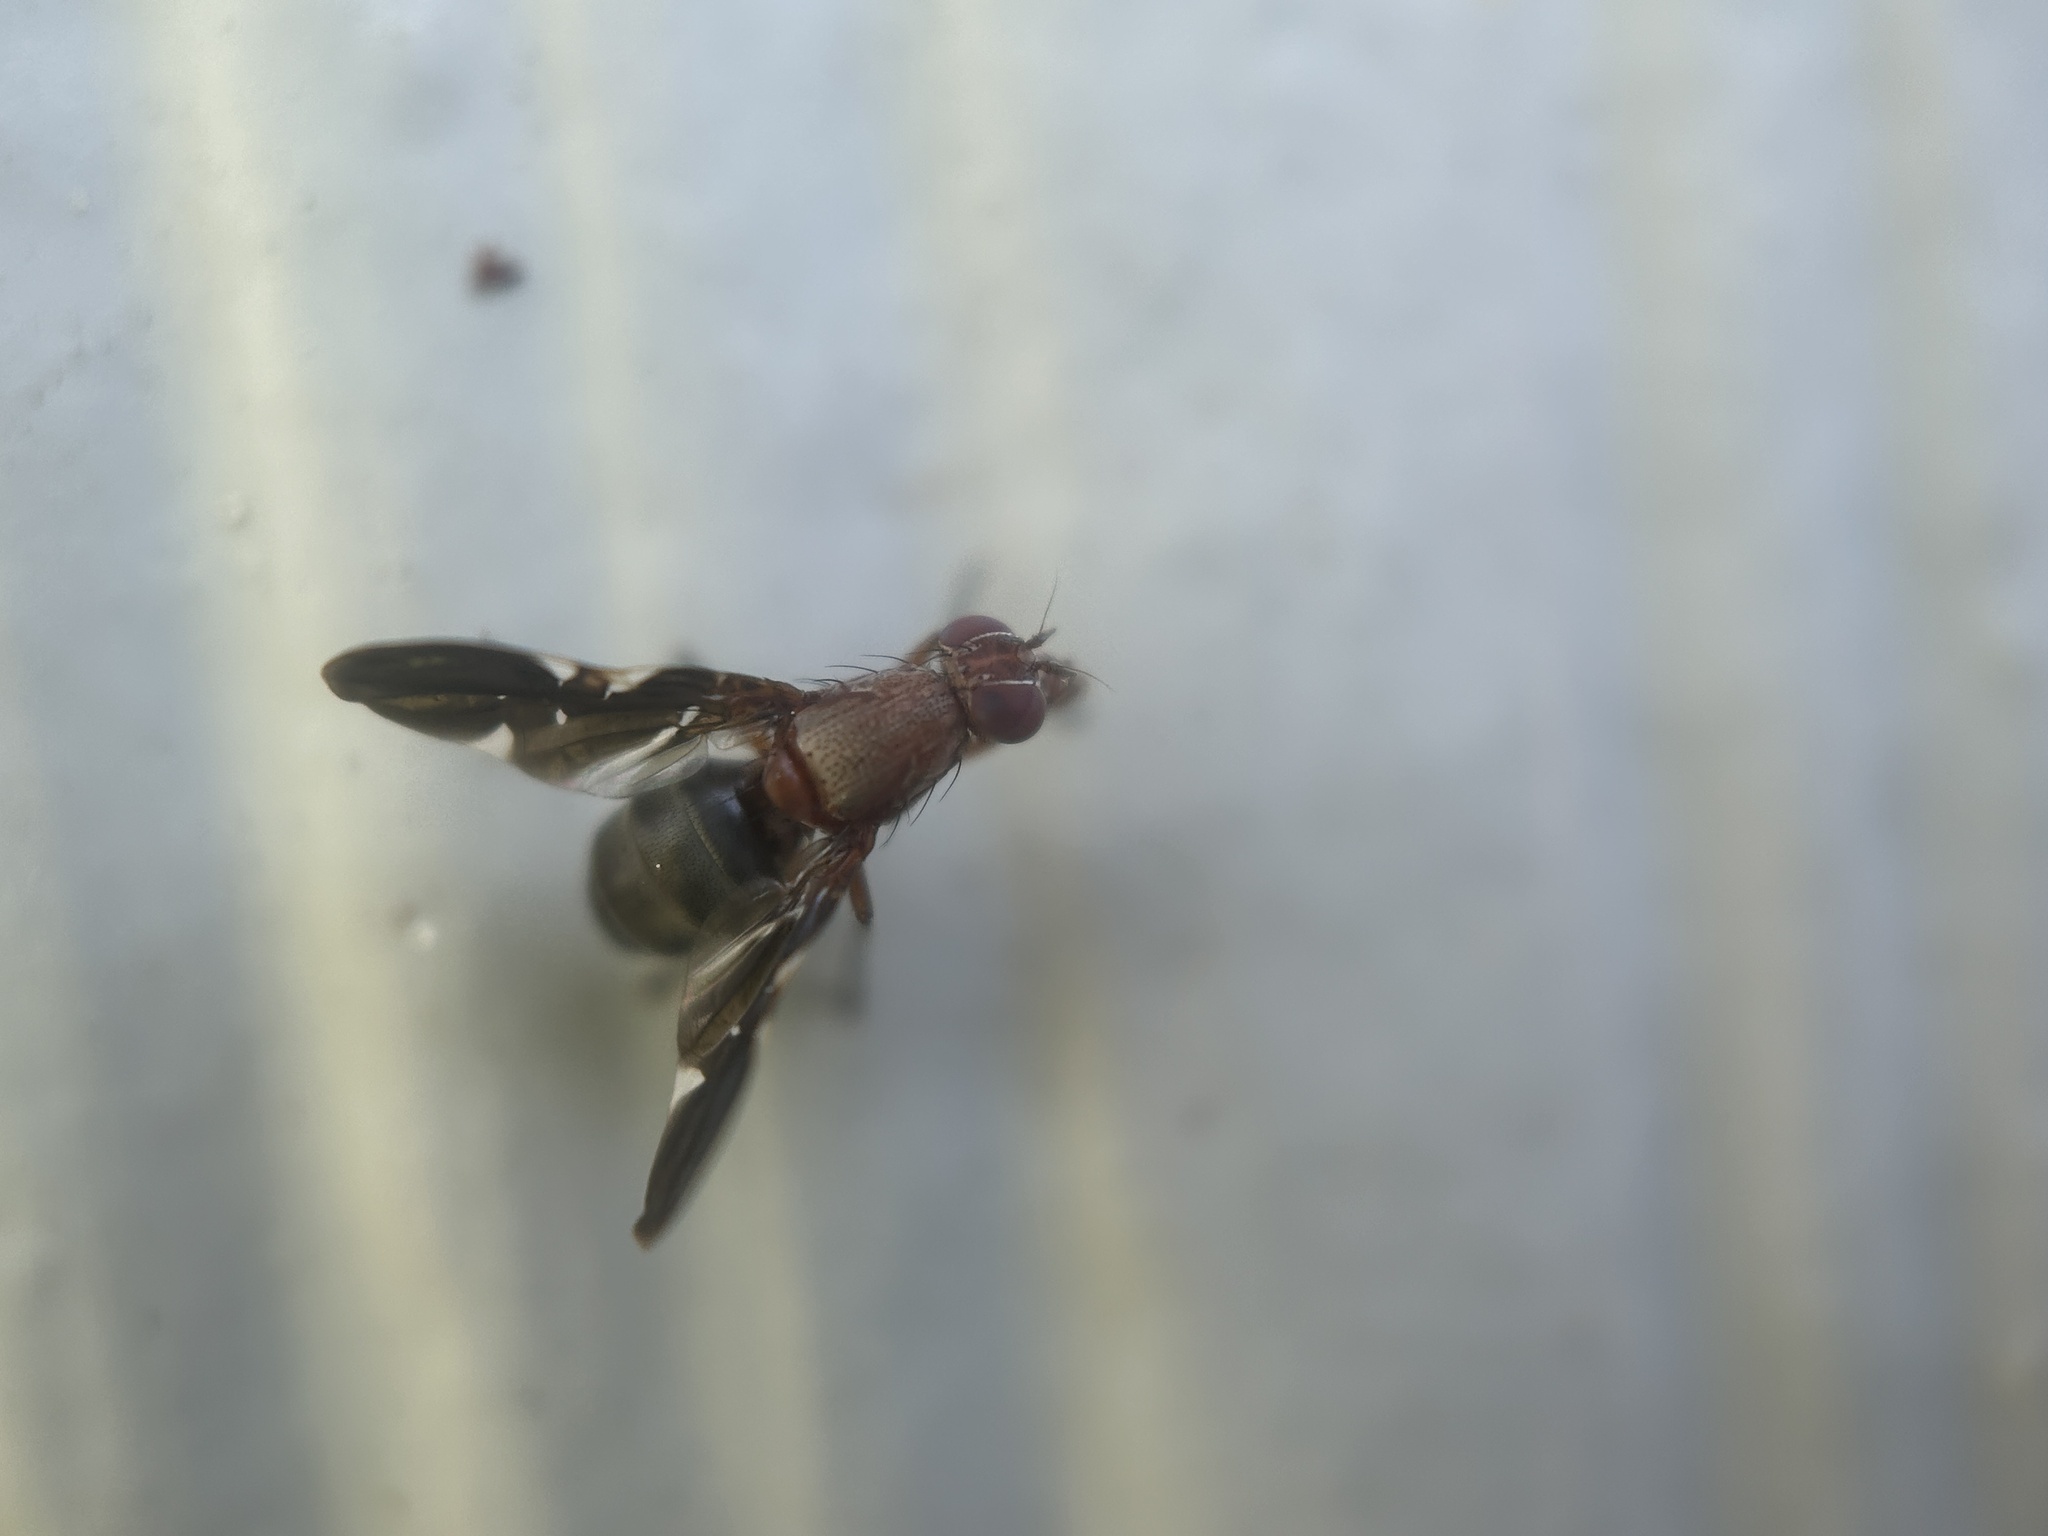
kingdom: Animalia
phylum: Arthropoda
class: Insecta
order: Diptera
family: Ulidiidae
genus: Delphinia
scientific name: Delphinia picta
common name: Common picture-winged fly
